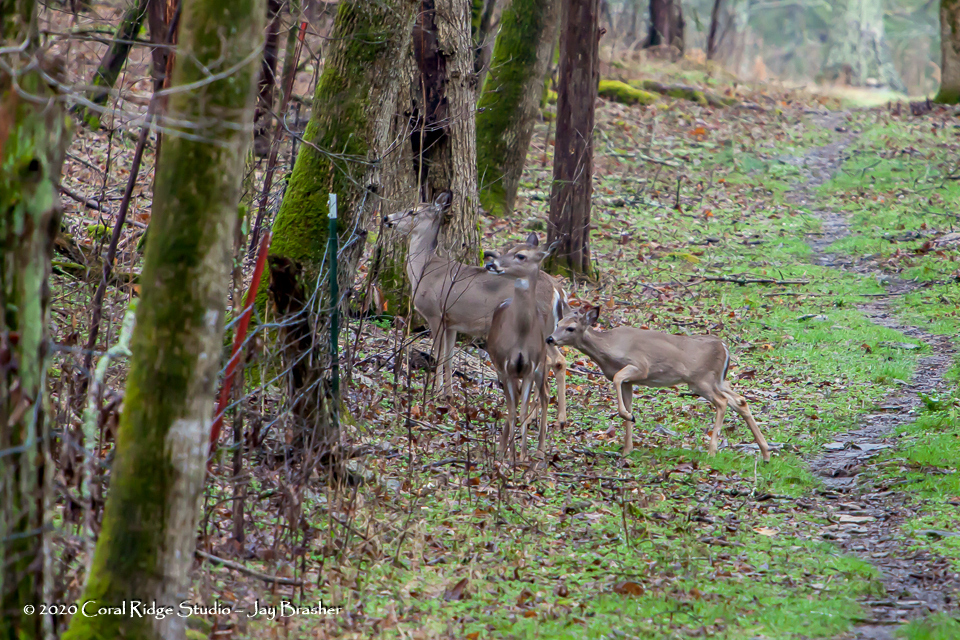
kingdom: Animalia
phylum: Chordata
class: Mammalia
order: Artiodactyla
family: Cervidae
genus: Odocoileus
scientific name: Odocoileus virginianus
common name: White-tailed deer
